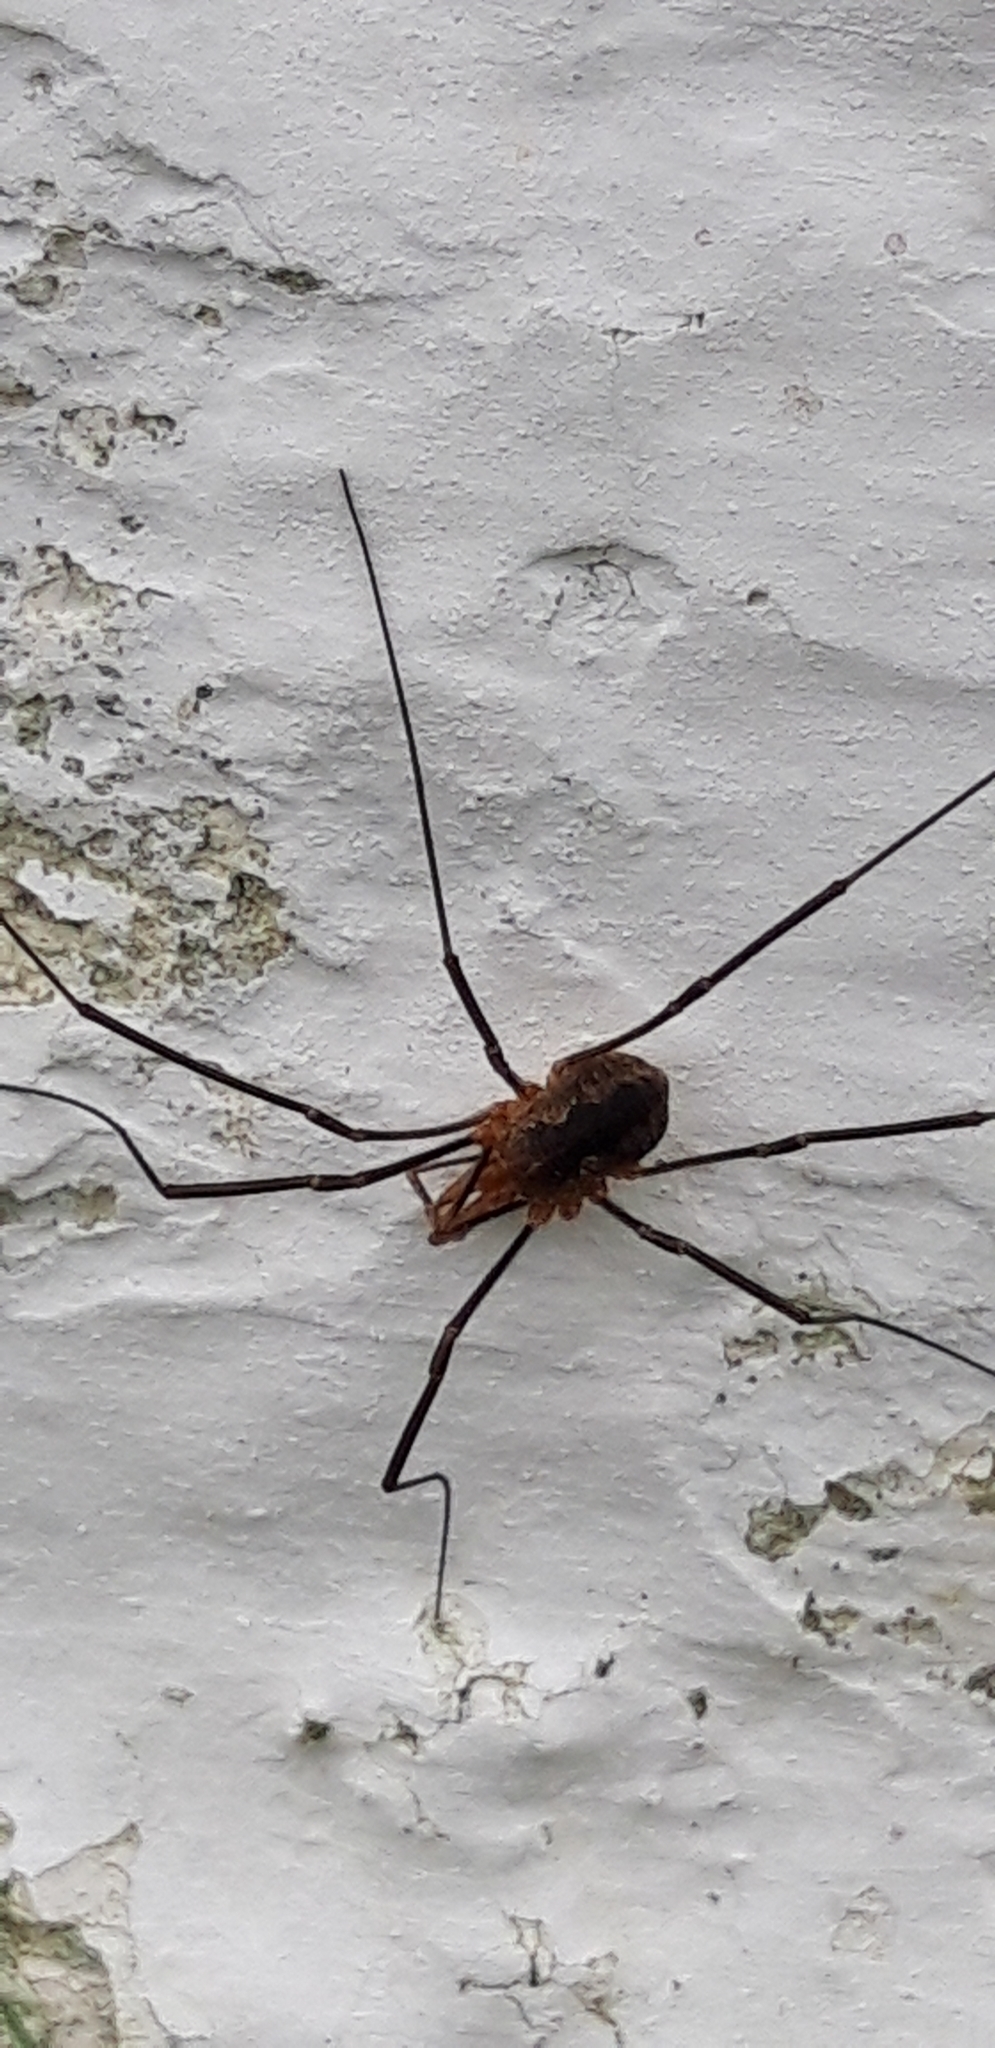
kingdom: Animalia
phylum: Arthropoda
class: Arachnida
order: Opiliones
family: Phalangiidae
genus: Phalangium
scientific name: Phalangium opilio
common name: Daddy longleg
